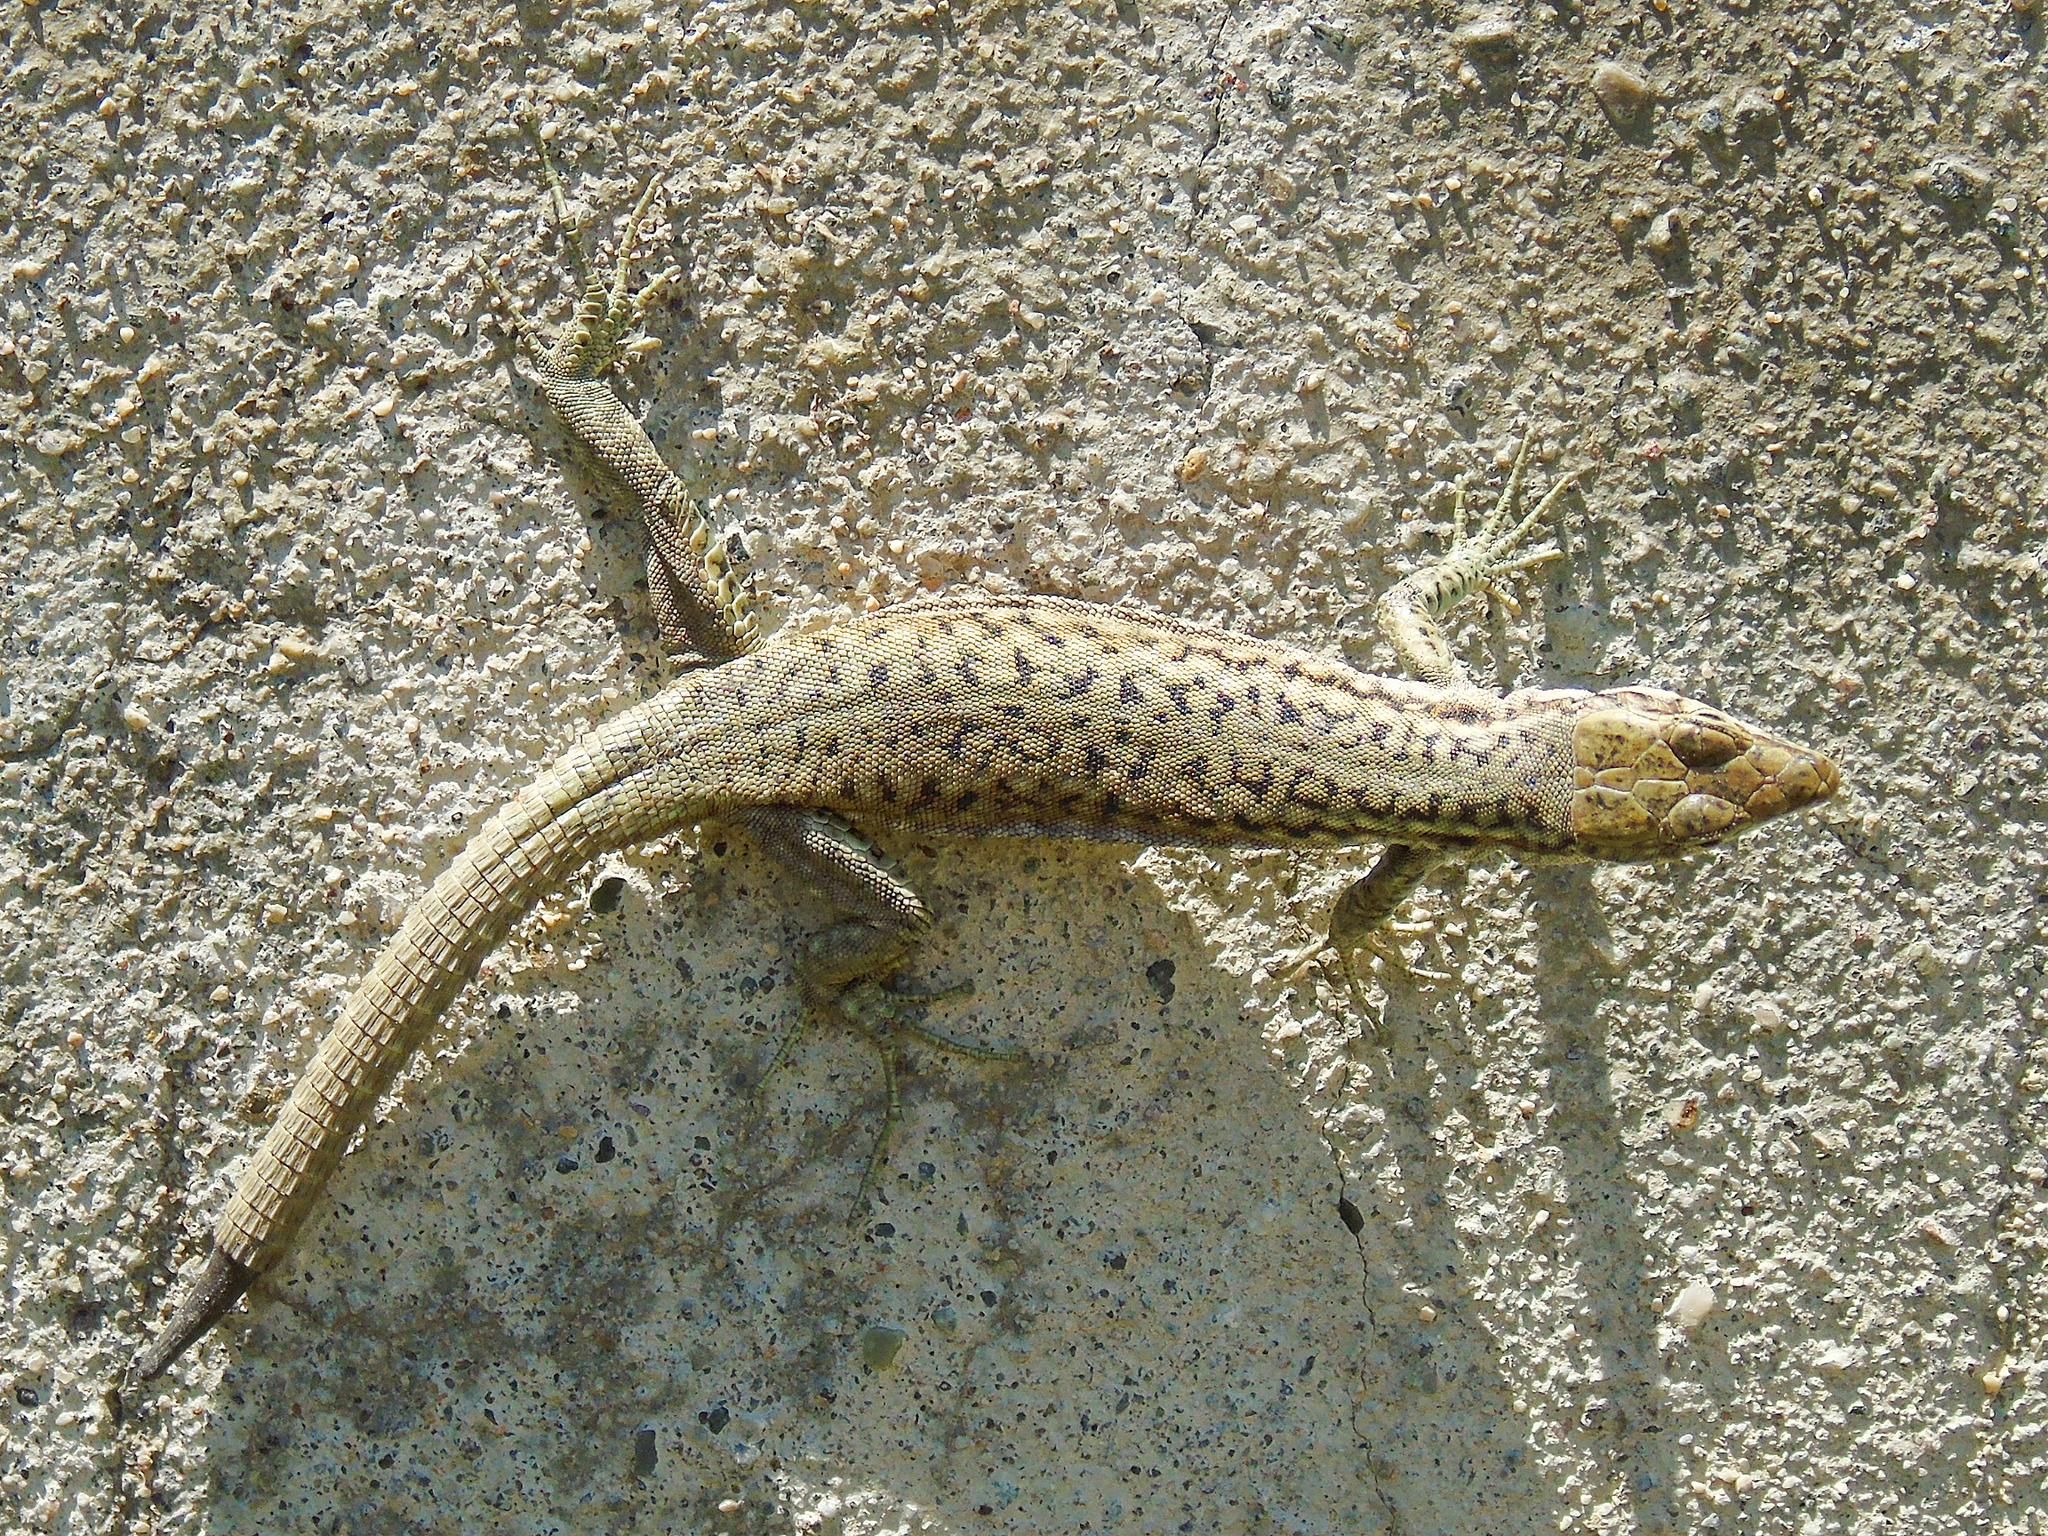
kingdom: Animalia
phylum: Chordata
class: Squamata
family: Lacertidae
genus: Darevskia
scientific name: Darevskia parvula
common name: Georgian lizard
